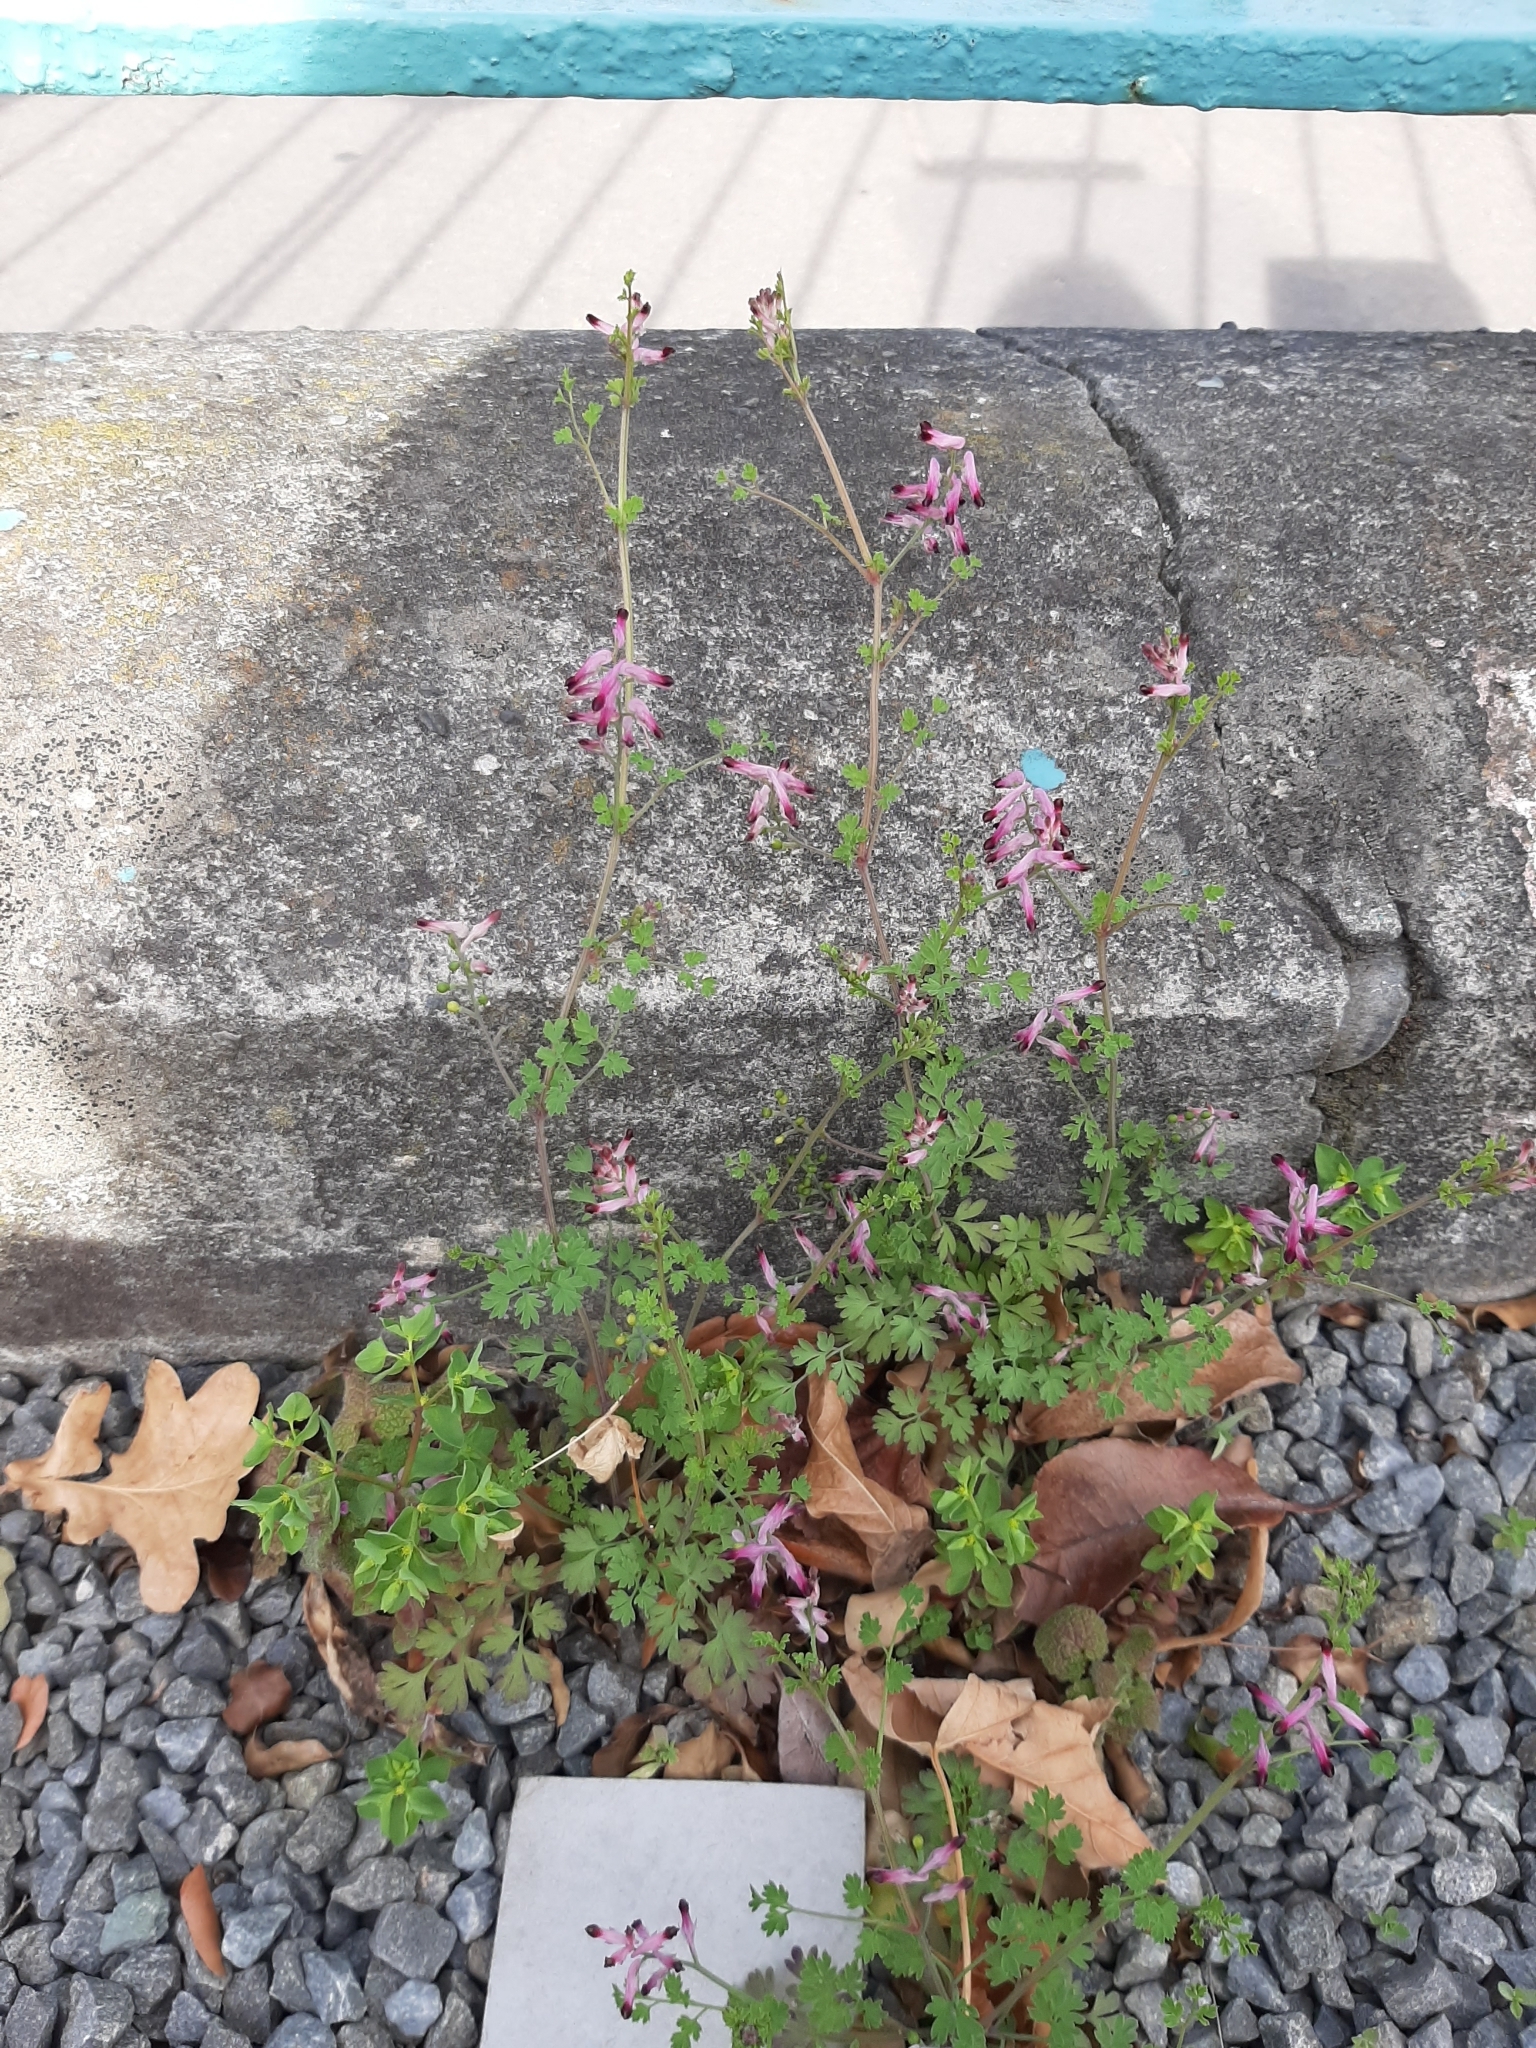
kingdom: Plantae
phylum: Tracheophyta
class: Magnoliopsida
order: Ranunculales
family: Papaveraceae
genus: Fumaria
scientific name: Fumaria muralis
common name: Common ramping-fumitory
